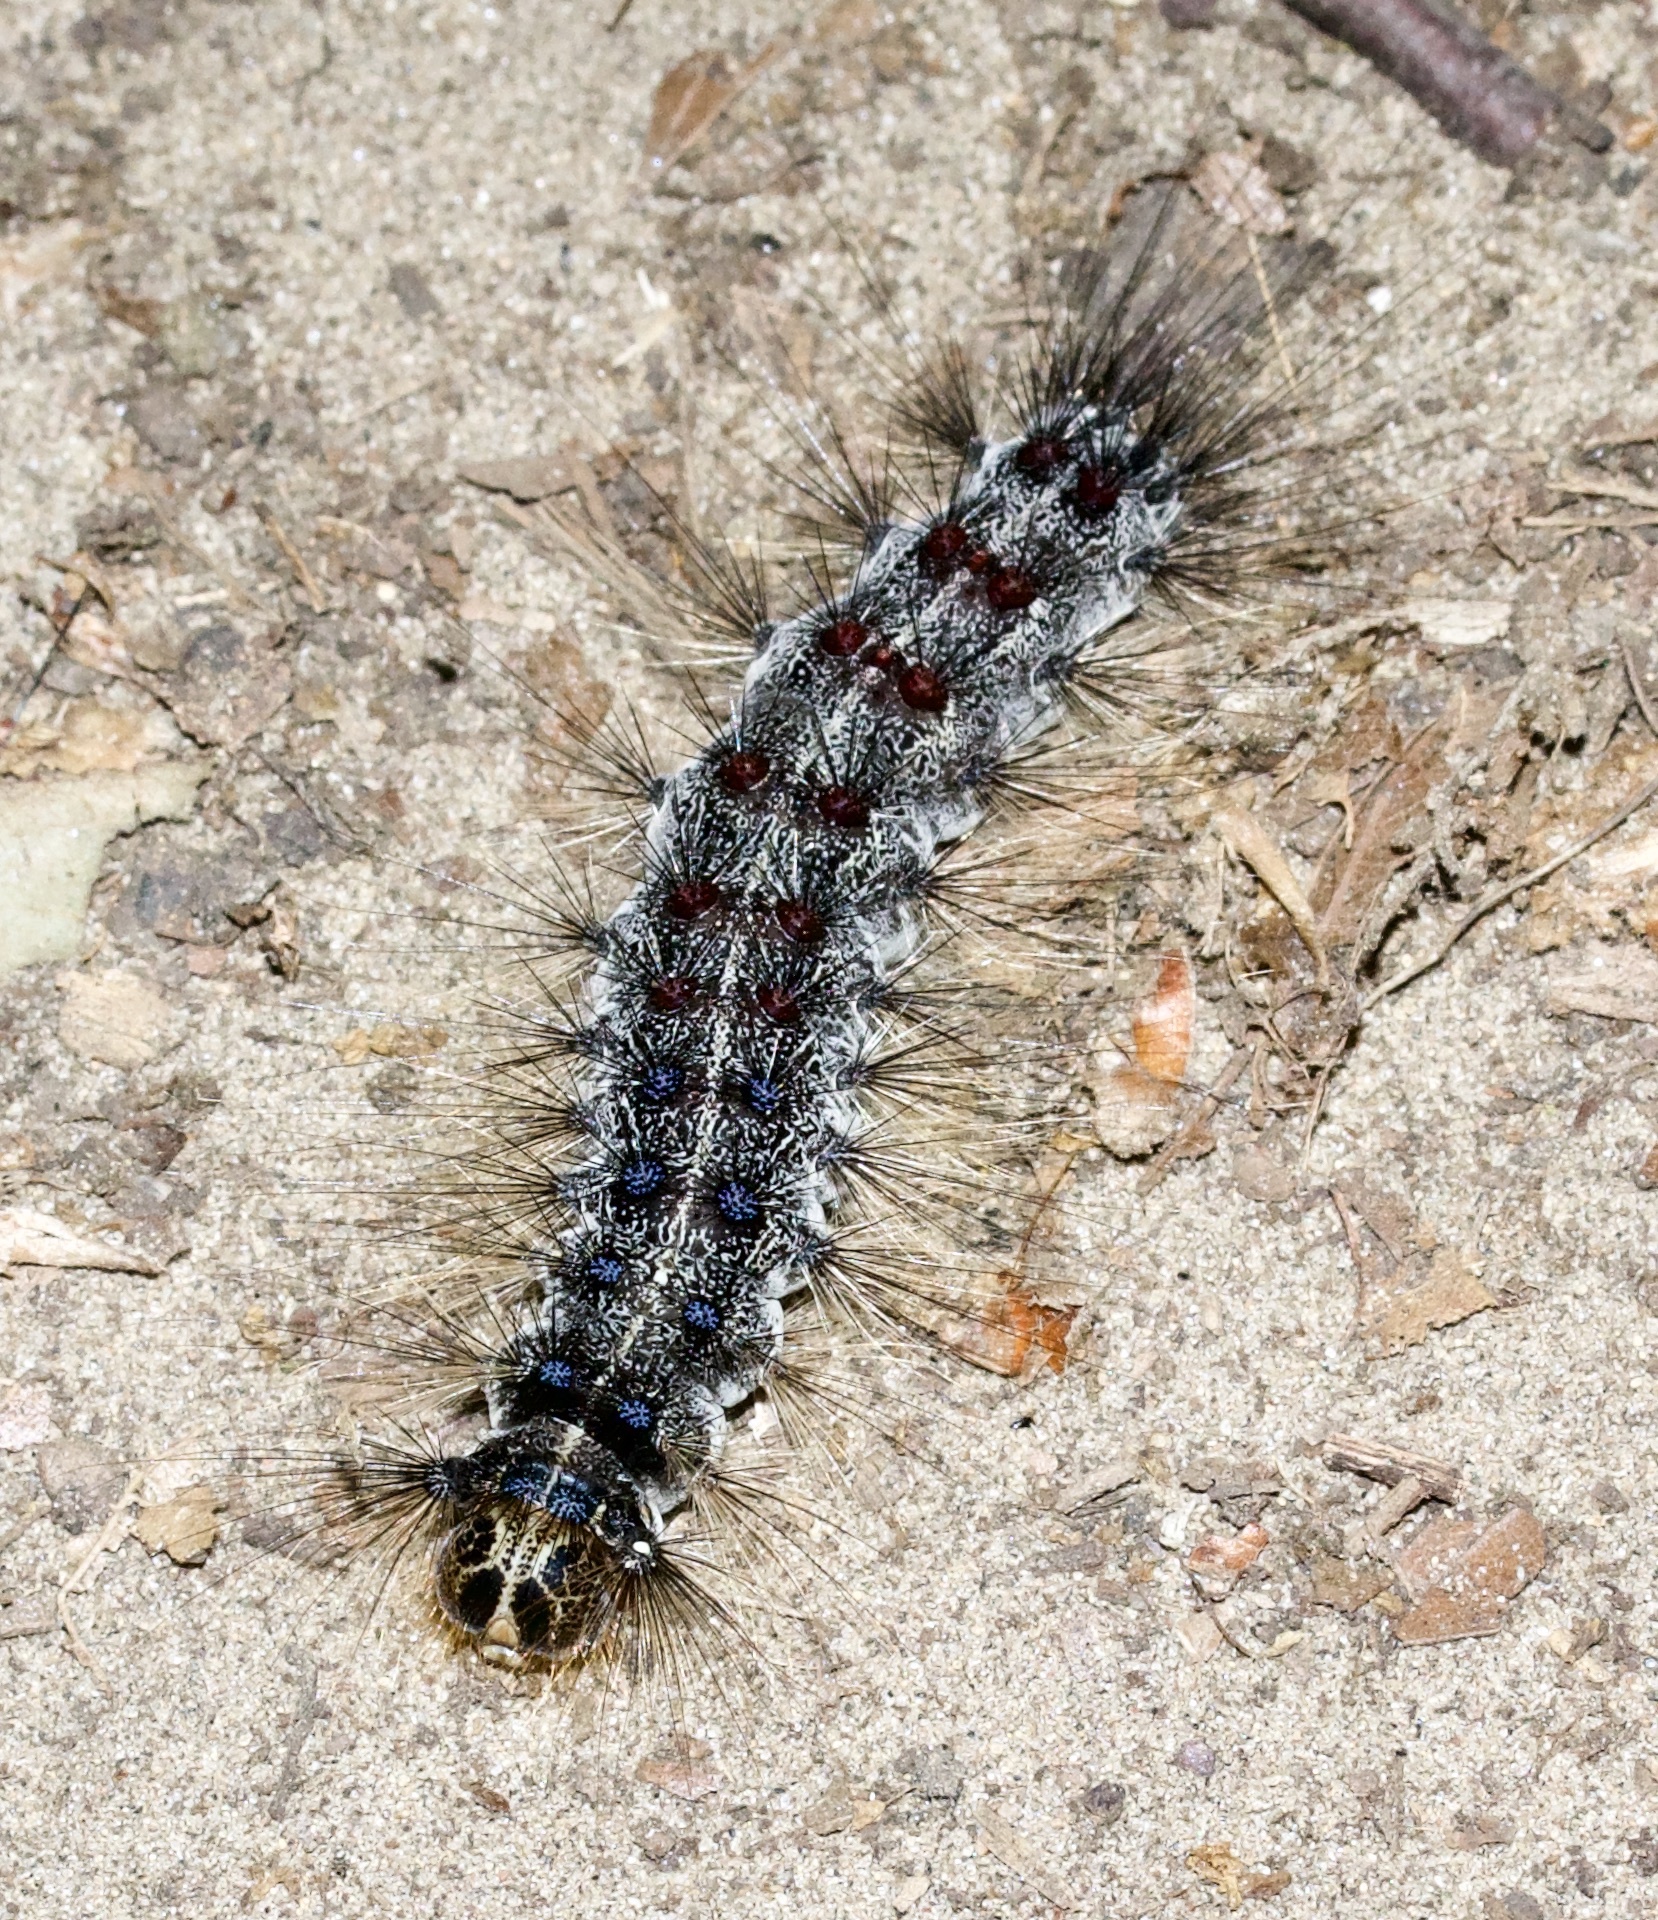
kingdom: Animalia
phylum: Arthropoda
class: Insecta
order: Lepidoptera
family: Erebidae
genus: Lymantria
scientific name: Lymantria dispar
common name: Gypsy moth
